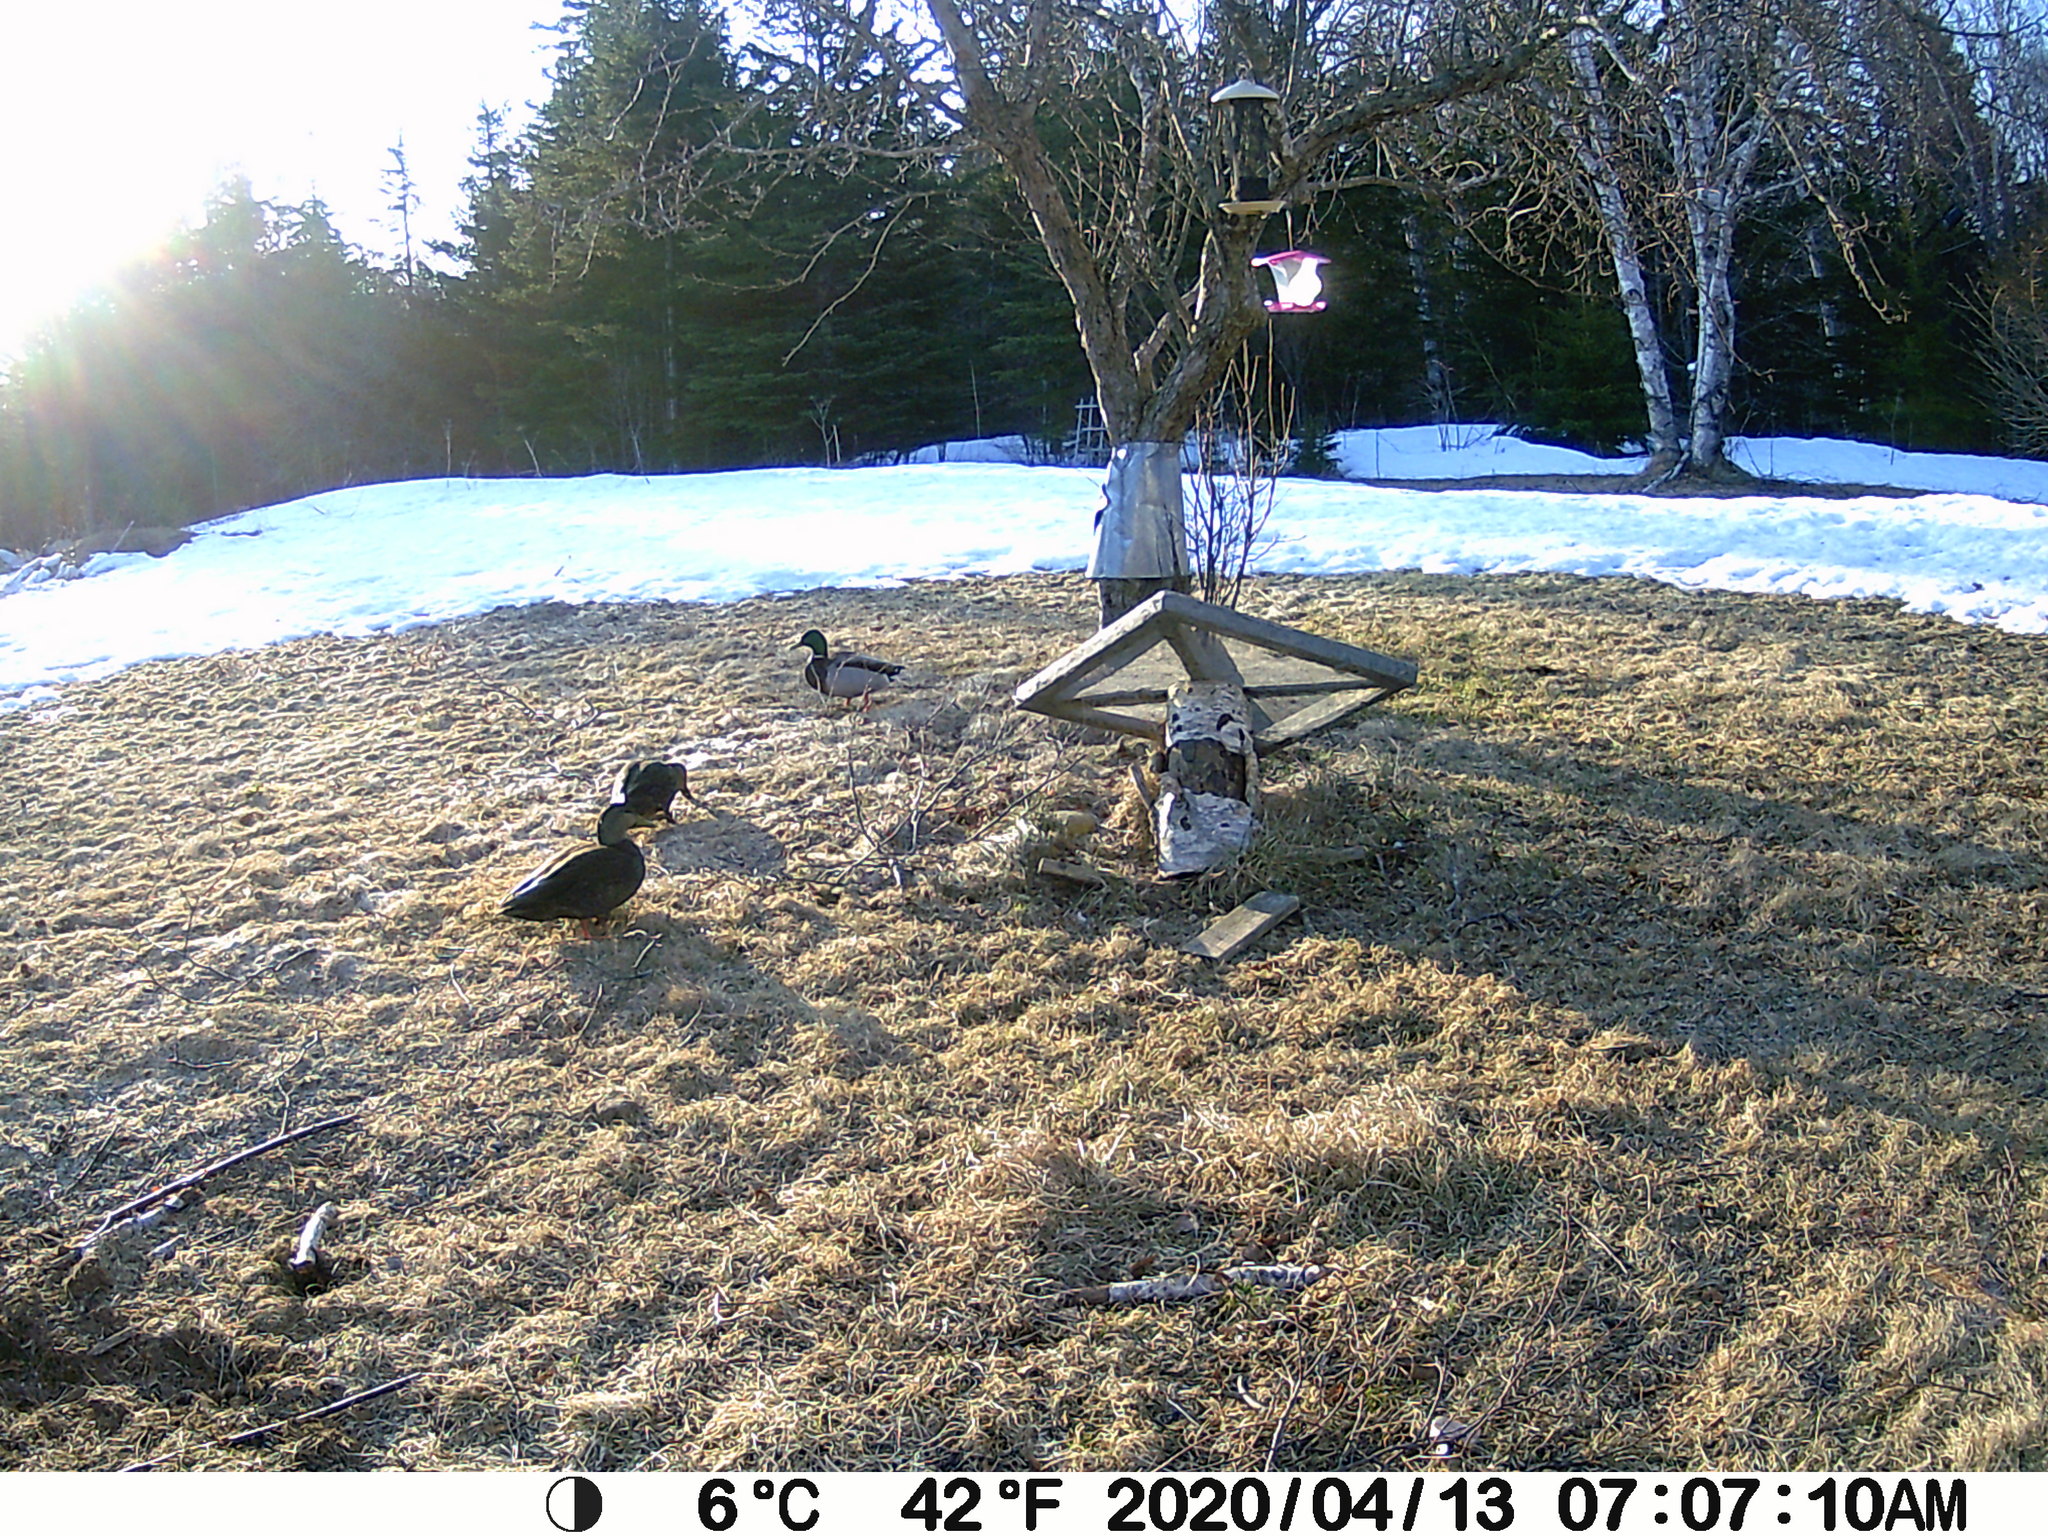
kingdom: Animalia
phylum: Chordata
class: Aves
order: Anseriformes
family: Anatidae
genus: Anas
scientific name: Anas platyrhynchos
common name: Mallard
